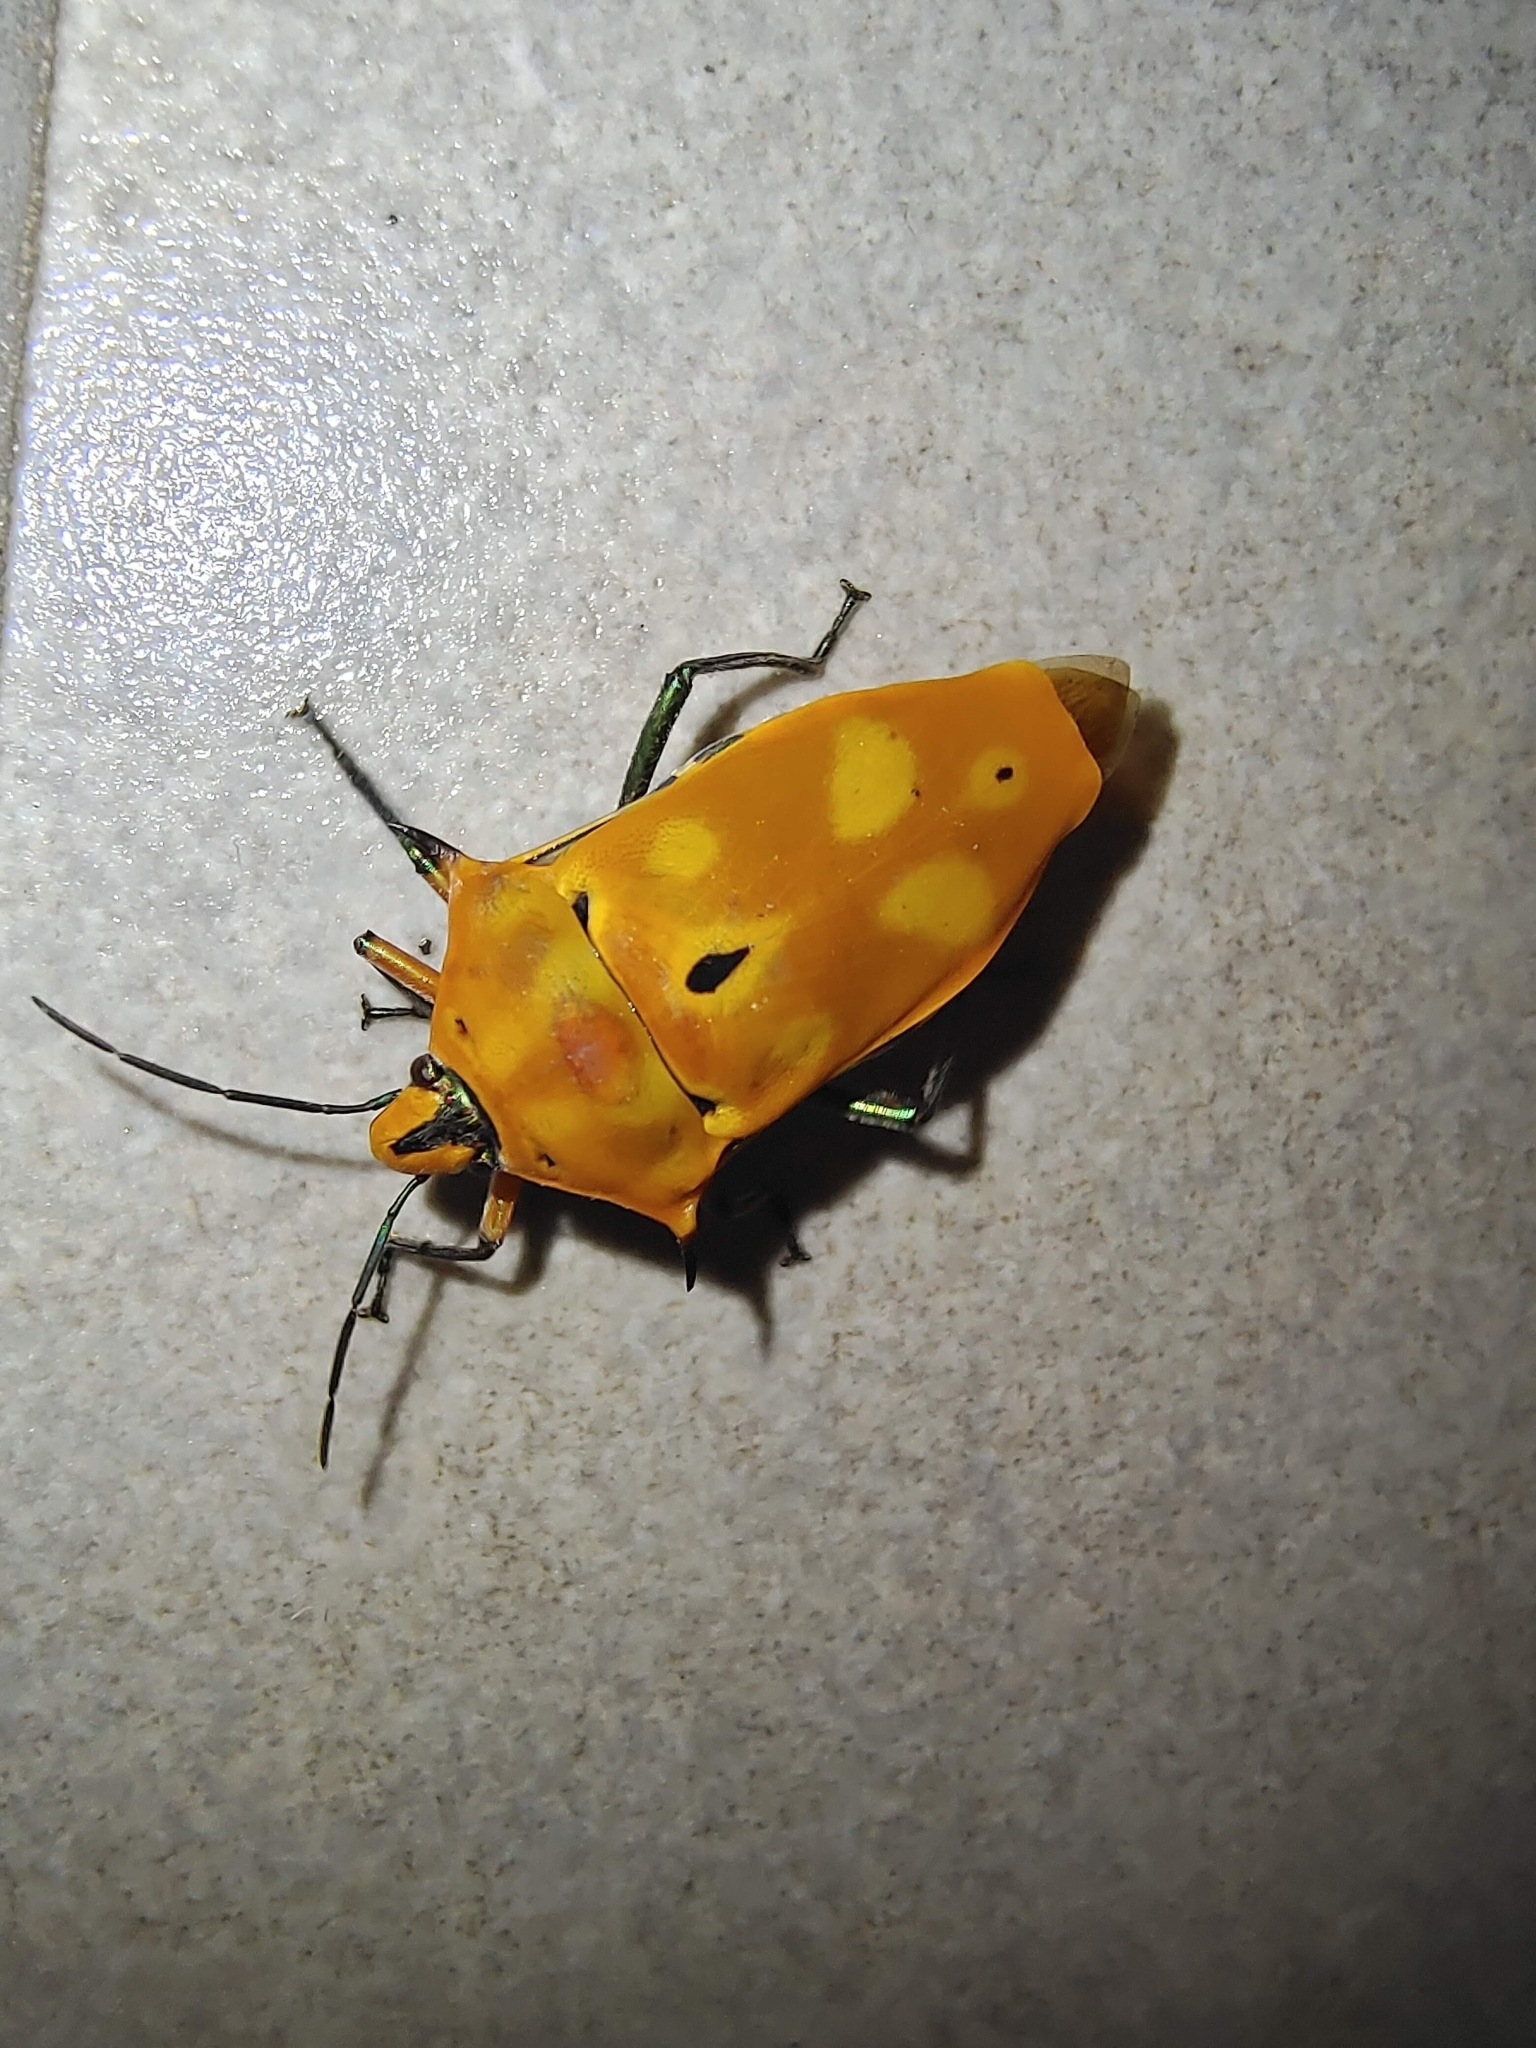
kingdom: Animalia
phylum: Arthropoda
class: Insecta
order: Hemiptera
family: Scutelleridae
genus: Cantao
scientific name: Cantao ocellatus
